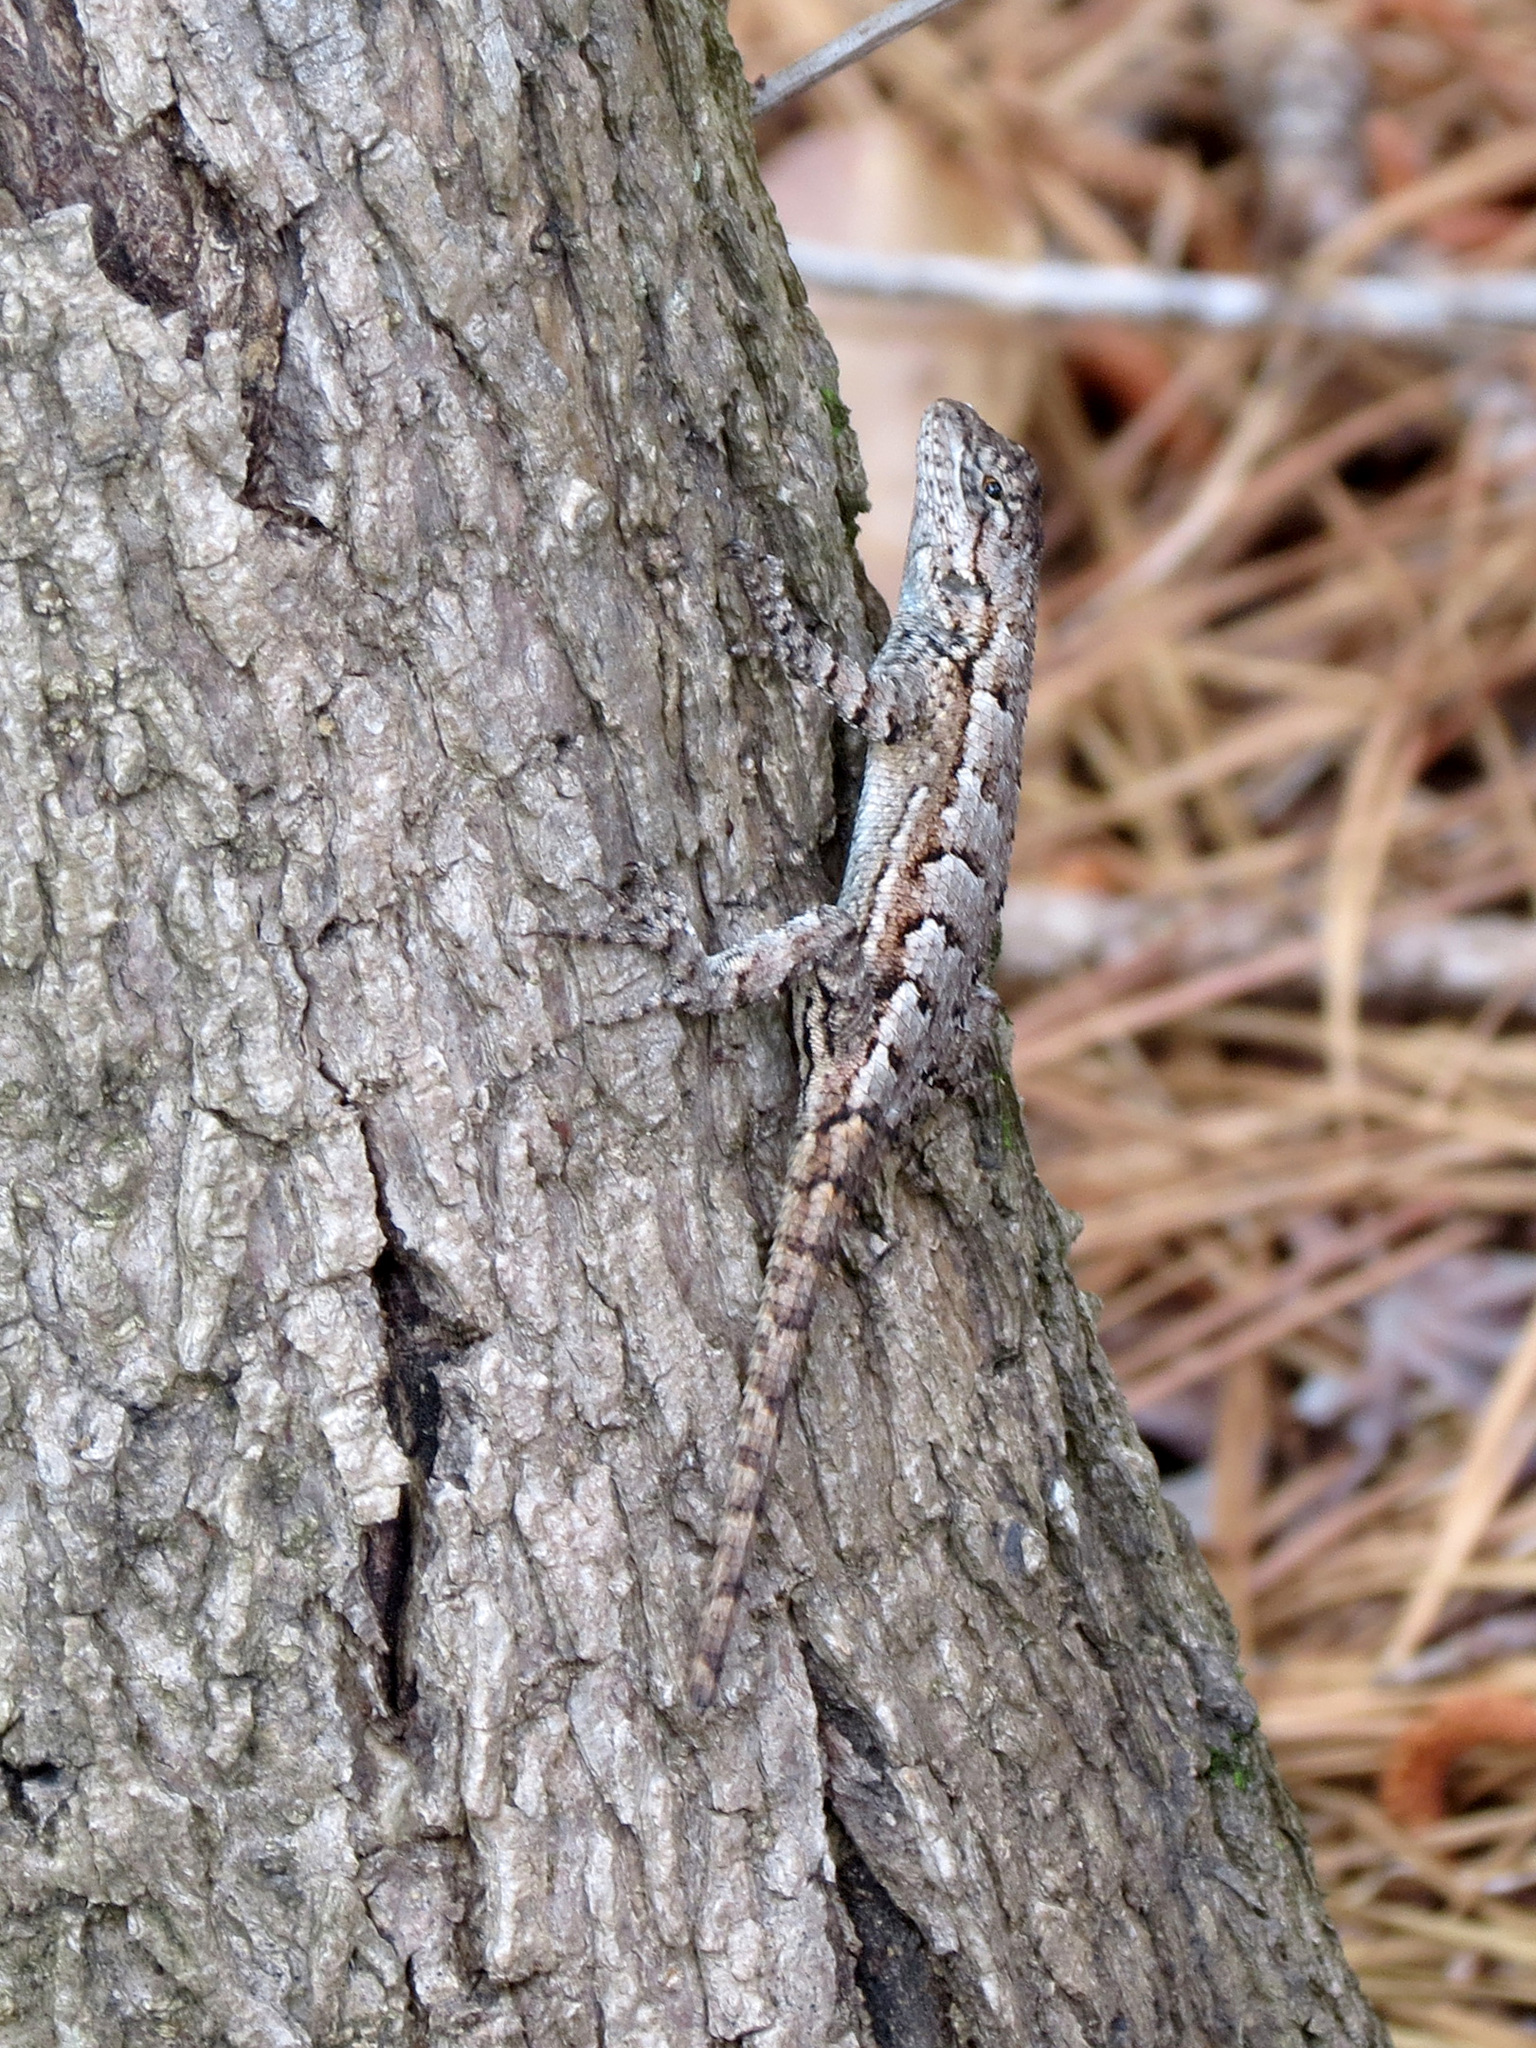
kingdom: Animalia
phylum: Chordata
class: Squamata
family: Phrynosomatidae
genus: Sceloporus
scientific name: Sceloporus undulatus
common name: Eastern fence lizard
